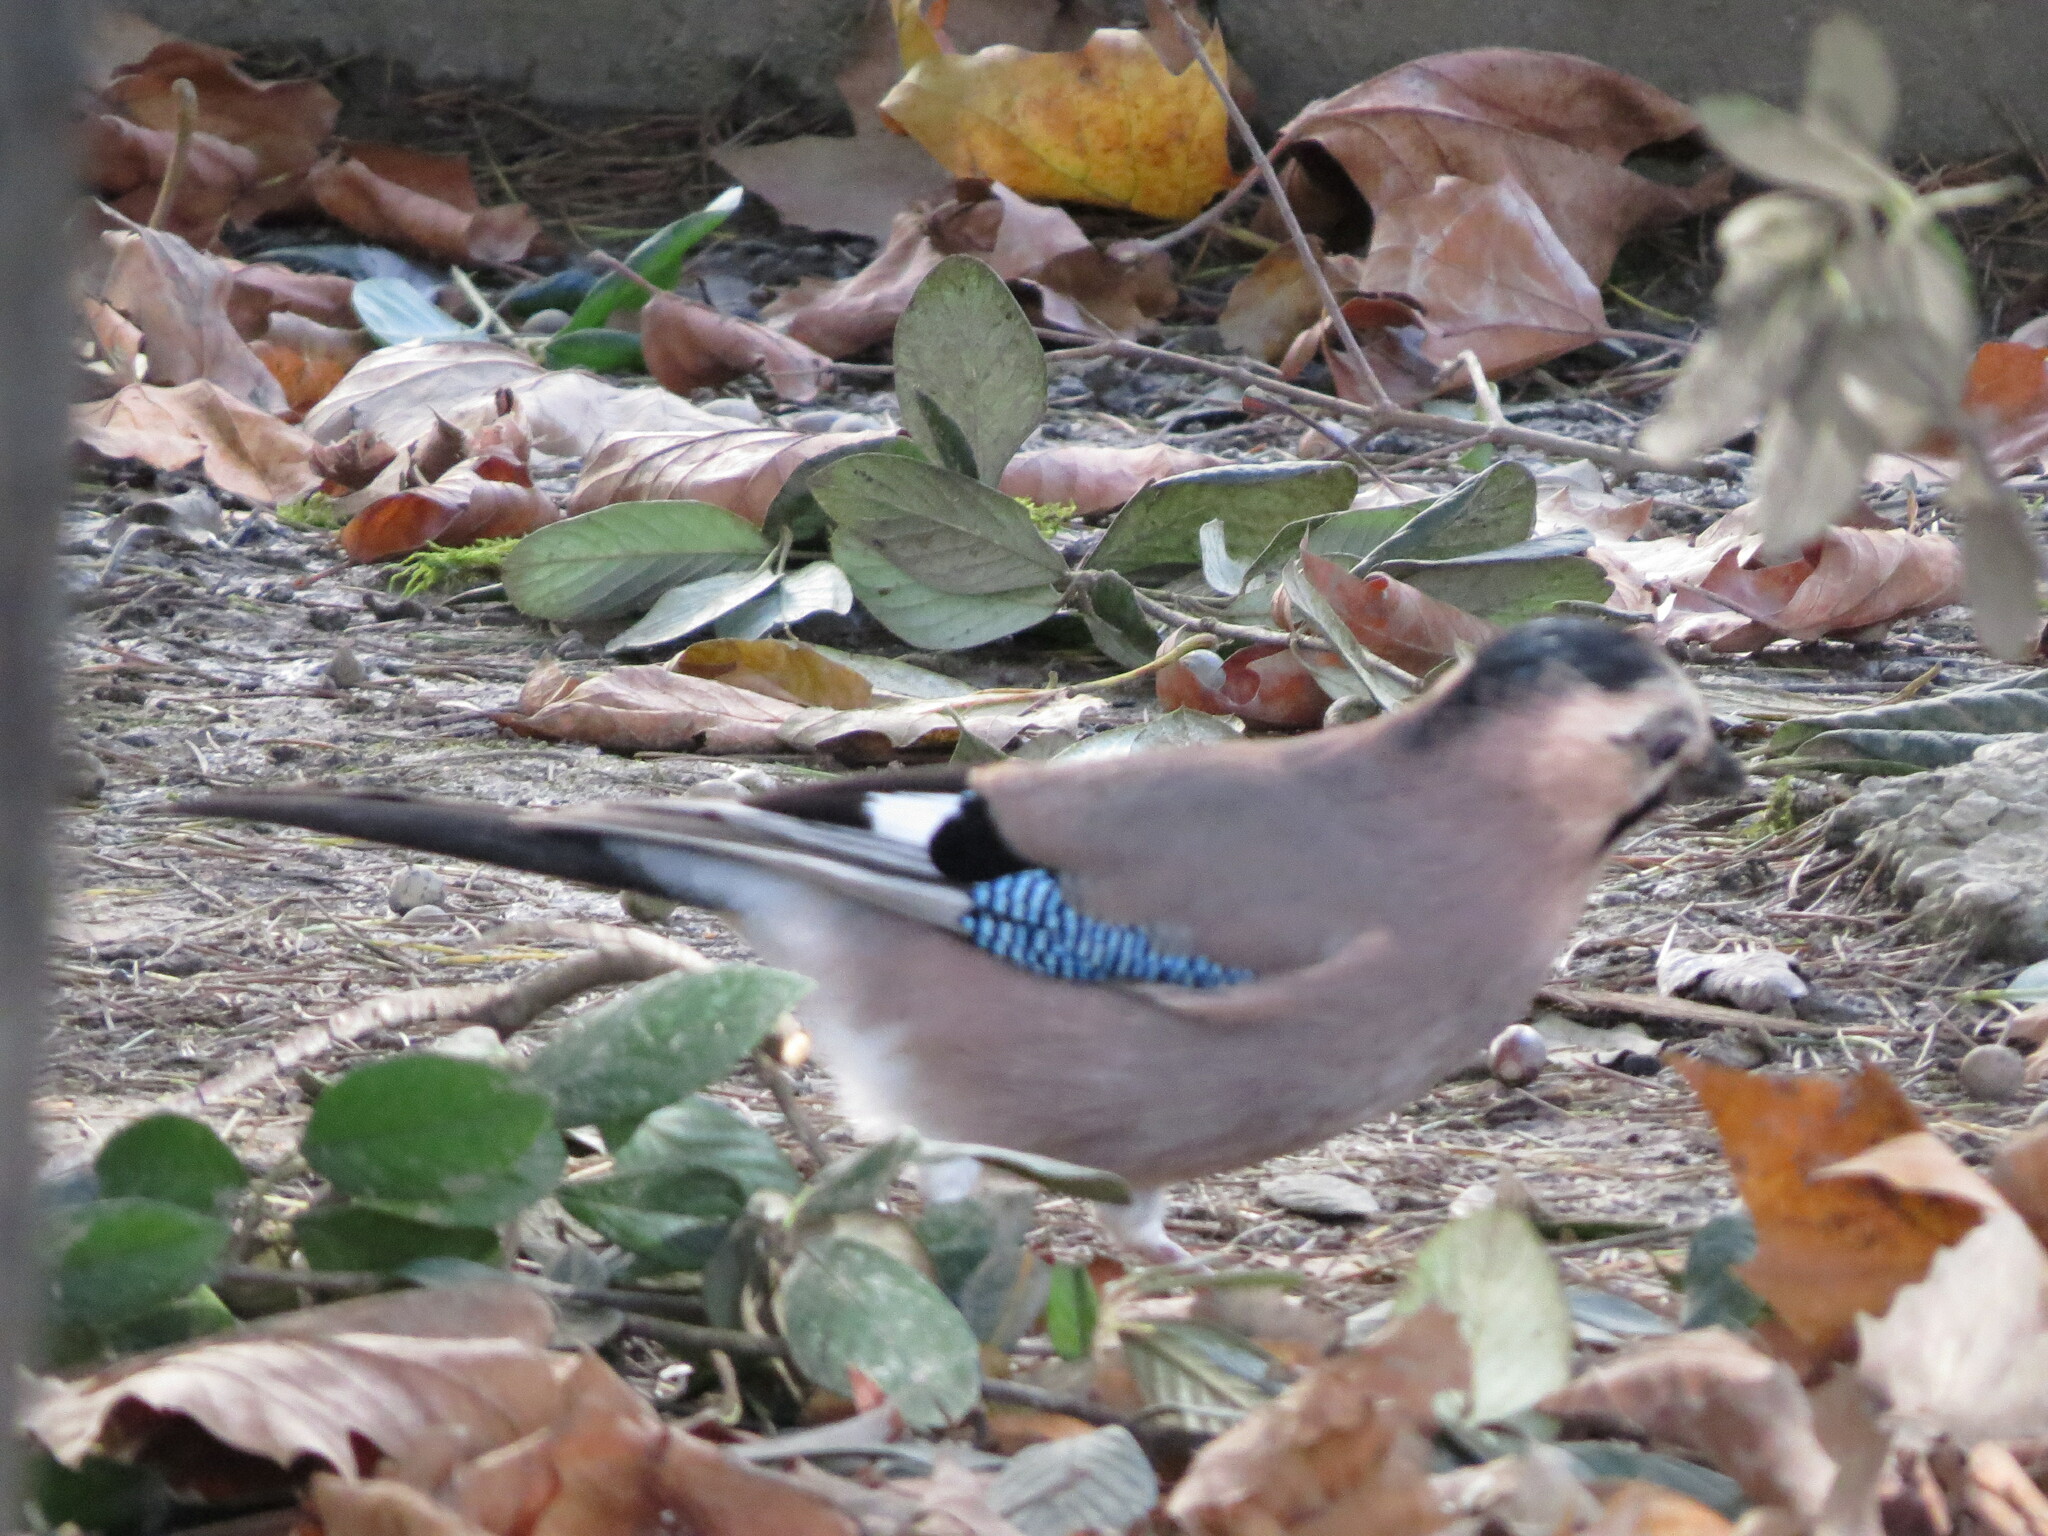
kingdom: Animalia
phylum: Chordata
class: Aves
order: Passeriformes
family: Corvidae
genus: Garrulus
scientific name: Garrulus glandarius
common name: Eurasian jay
